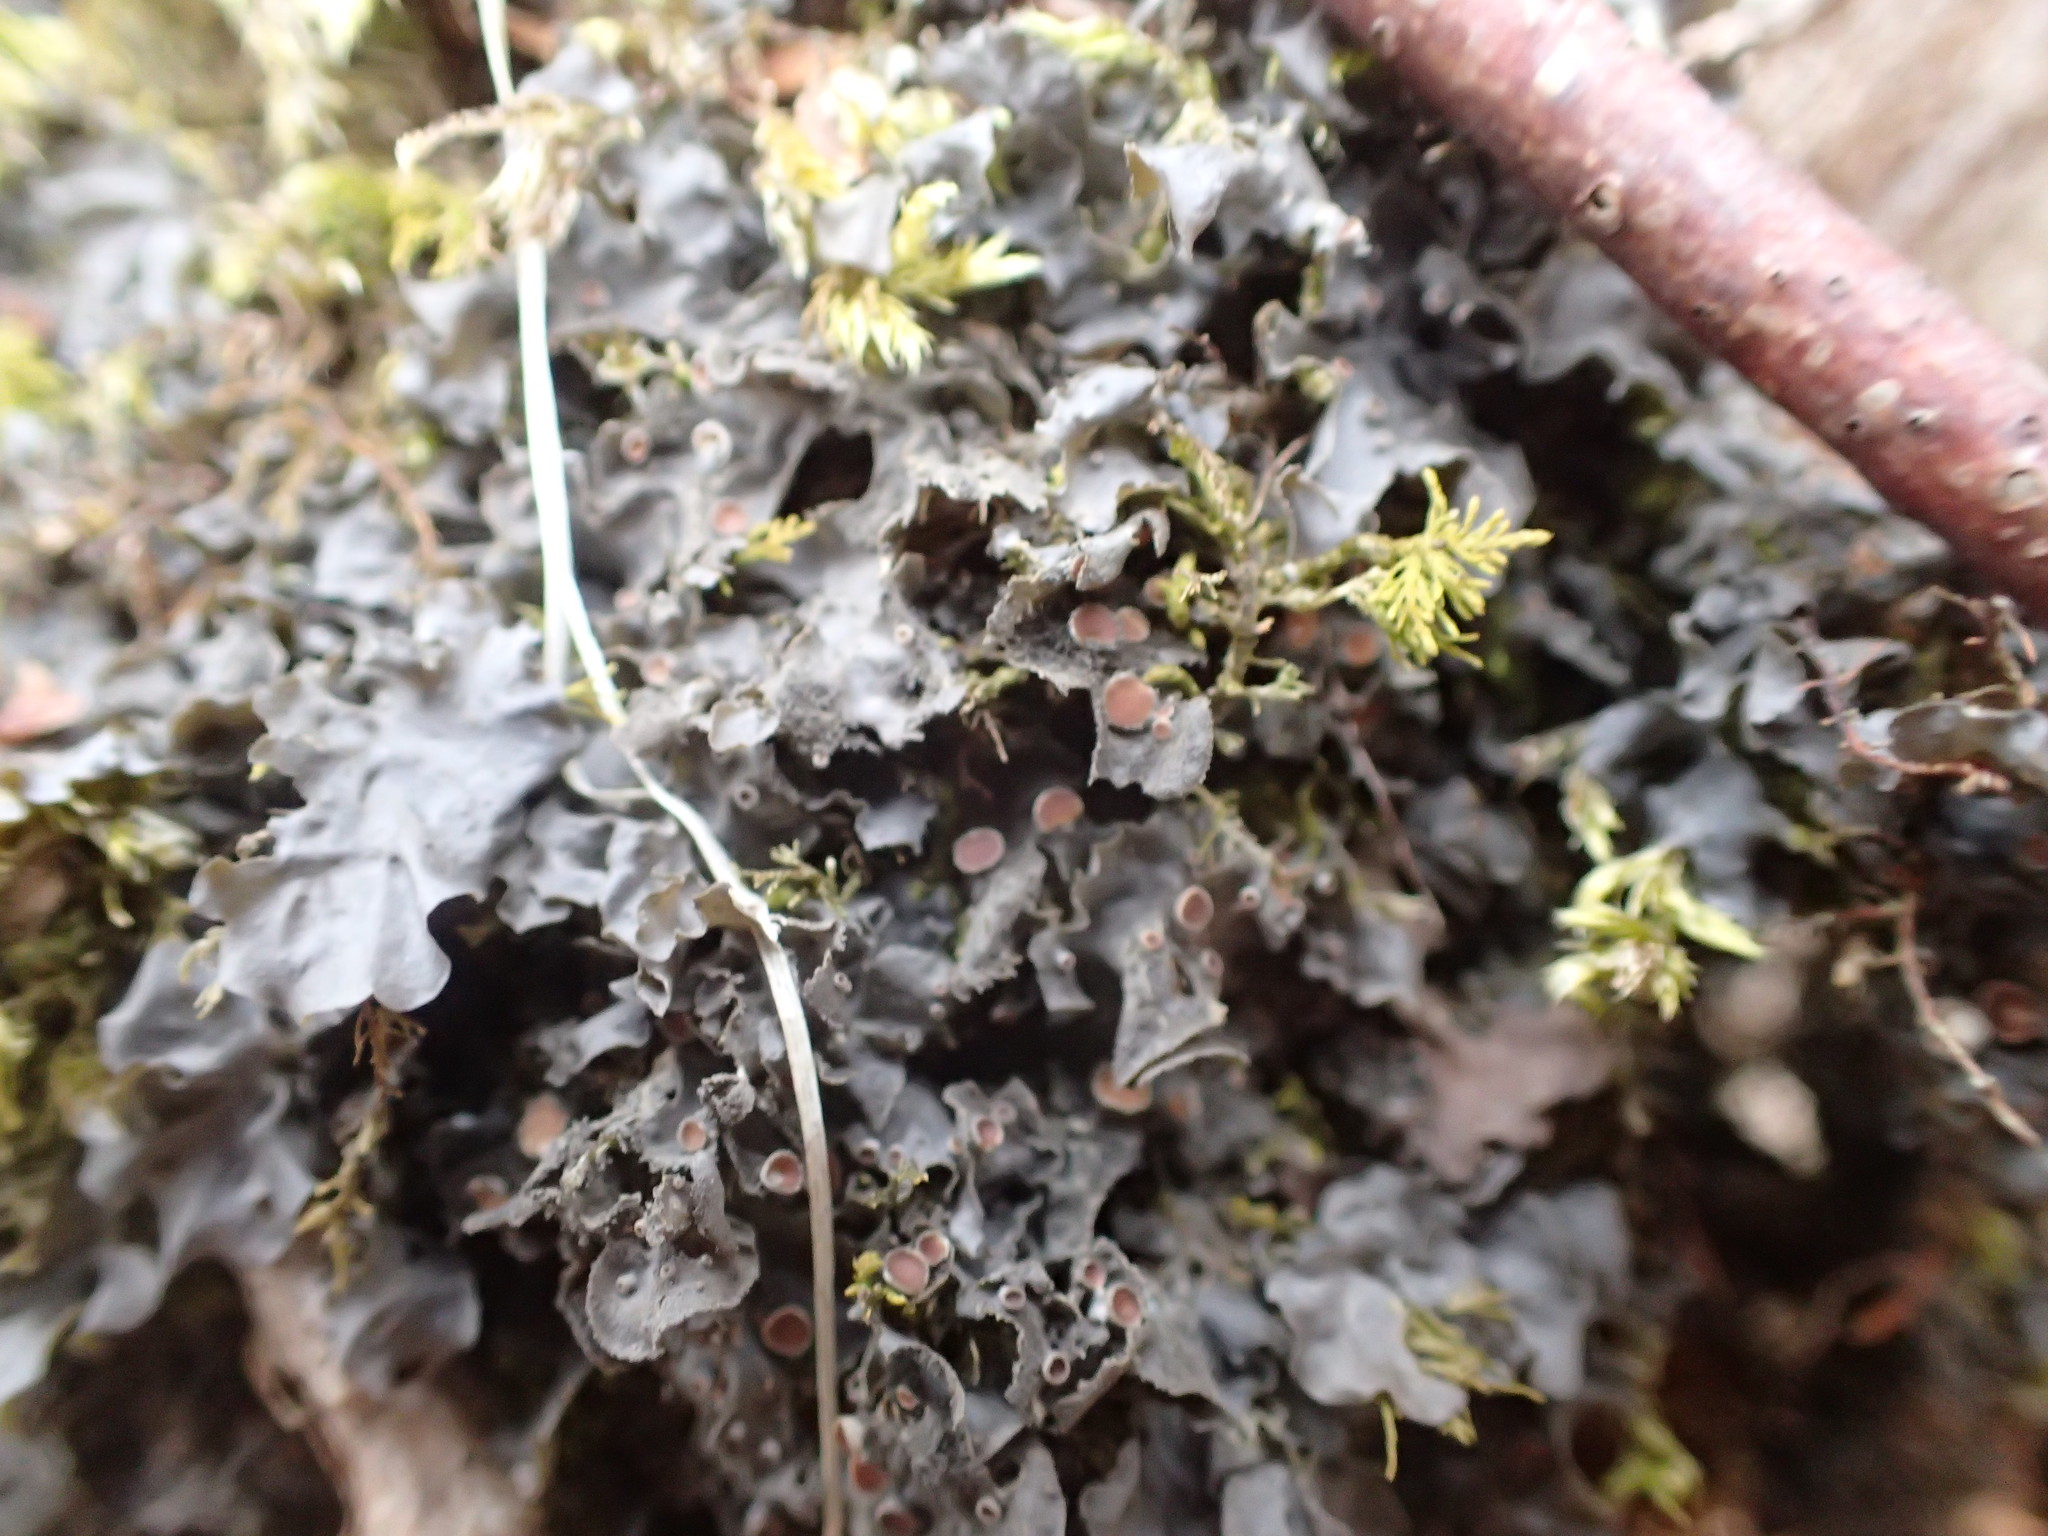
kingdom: Fungi
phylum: Ascomycota
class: Lecanoromycetes
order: Peltigerales
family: Collemataceae
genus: Leptogium
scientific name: Leptogium cyanescens
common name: Blue jellyskin
